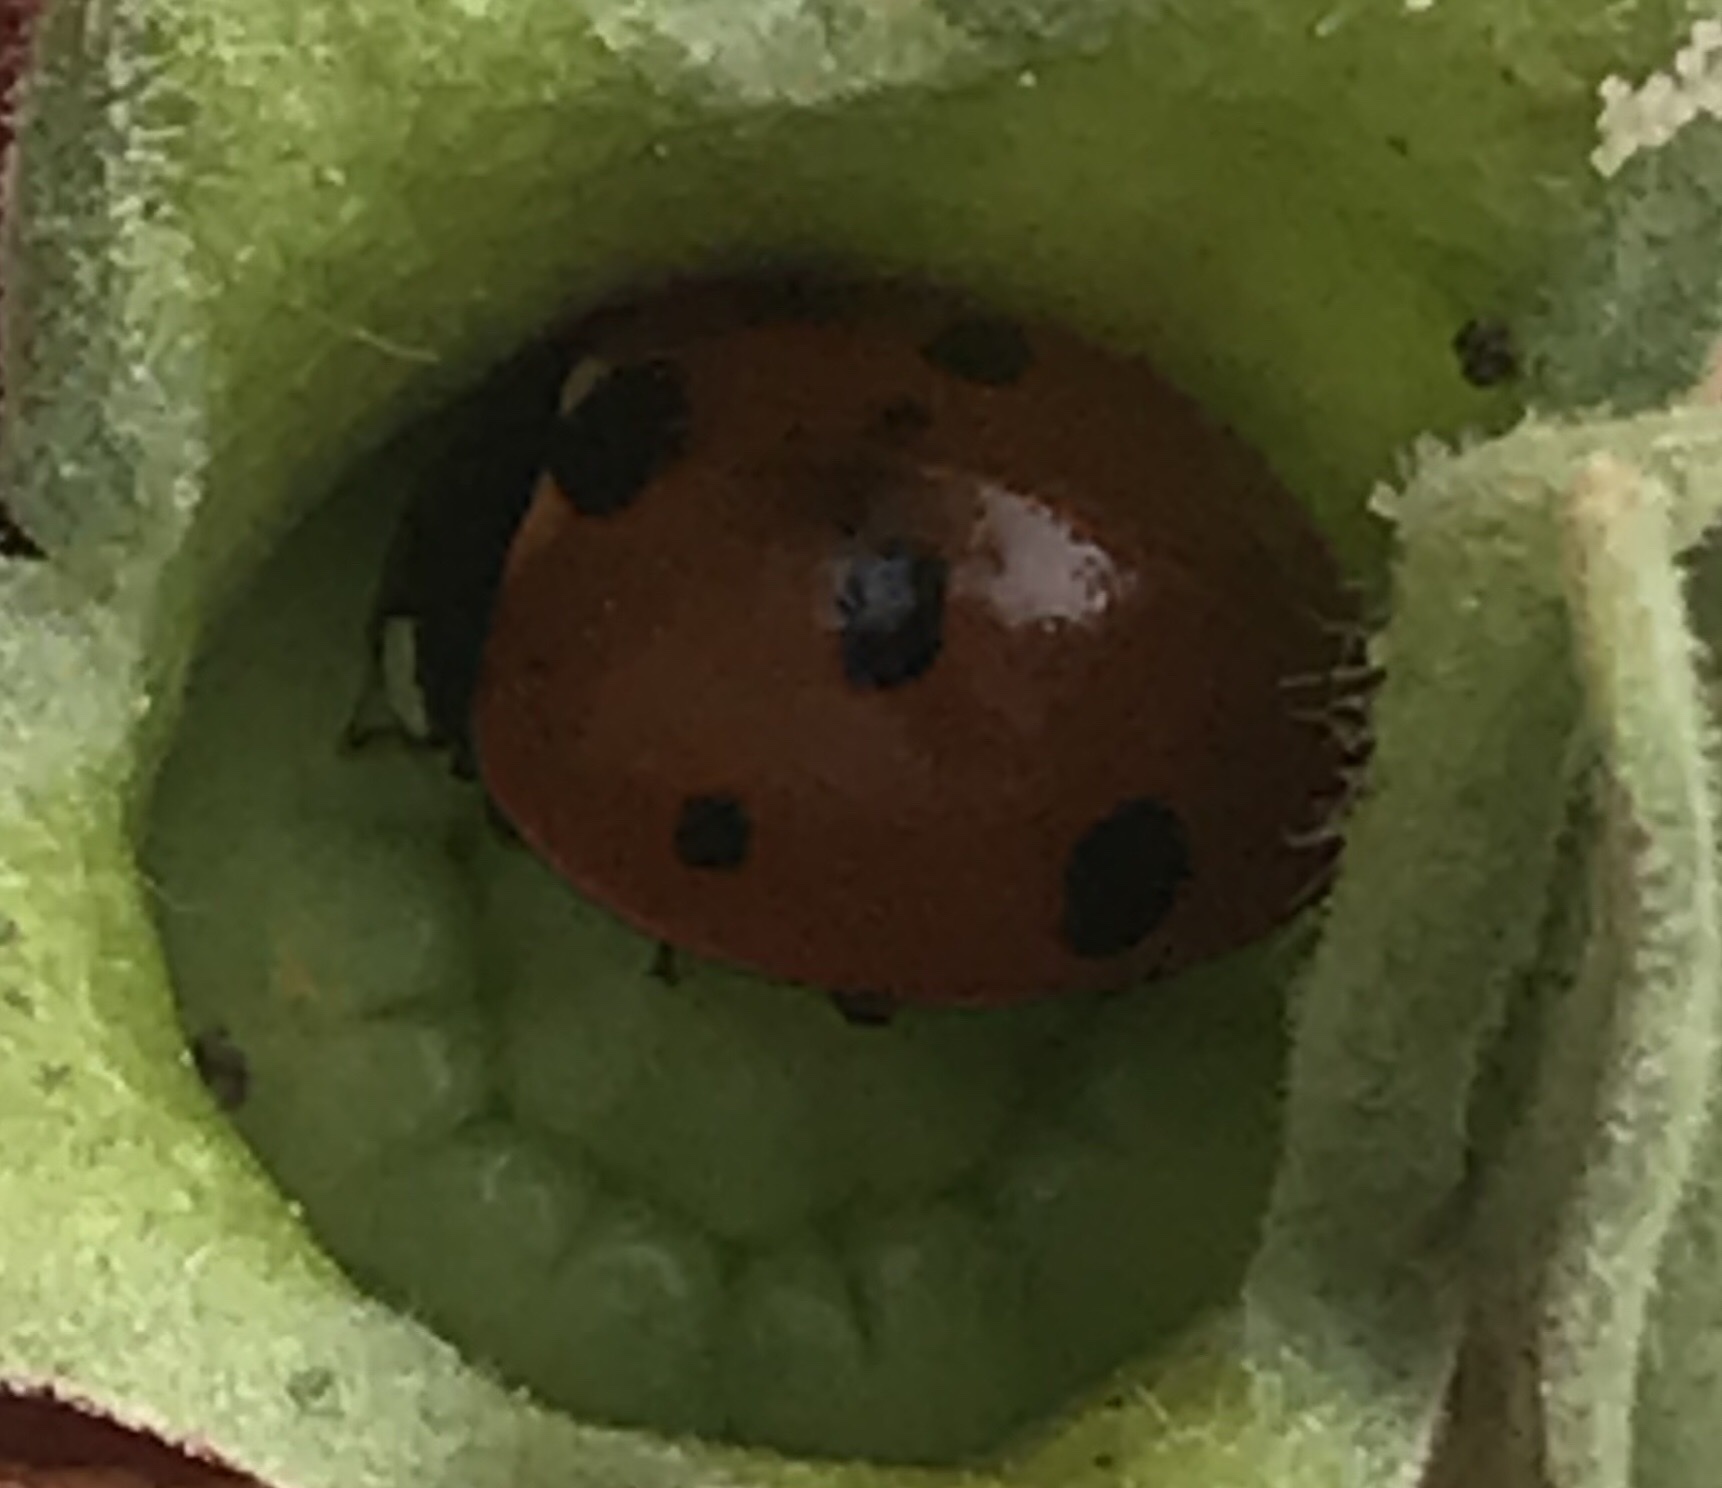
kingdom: Animalia
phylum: Arthropoda
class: Insecta
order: Coleoptera
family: Coccinellidae
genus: Coccinella
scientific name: Coccinella septempunctata
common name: Sevenspotted lady beetle
